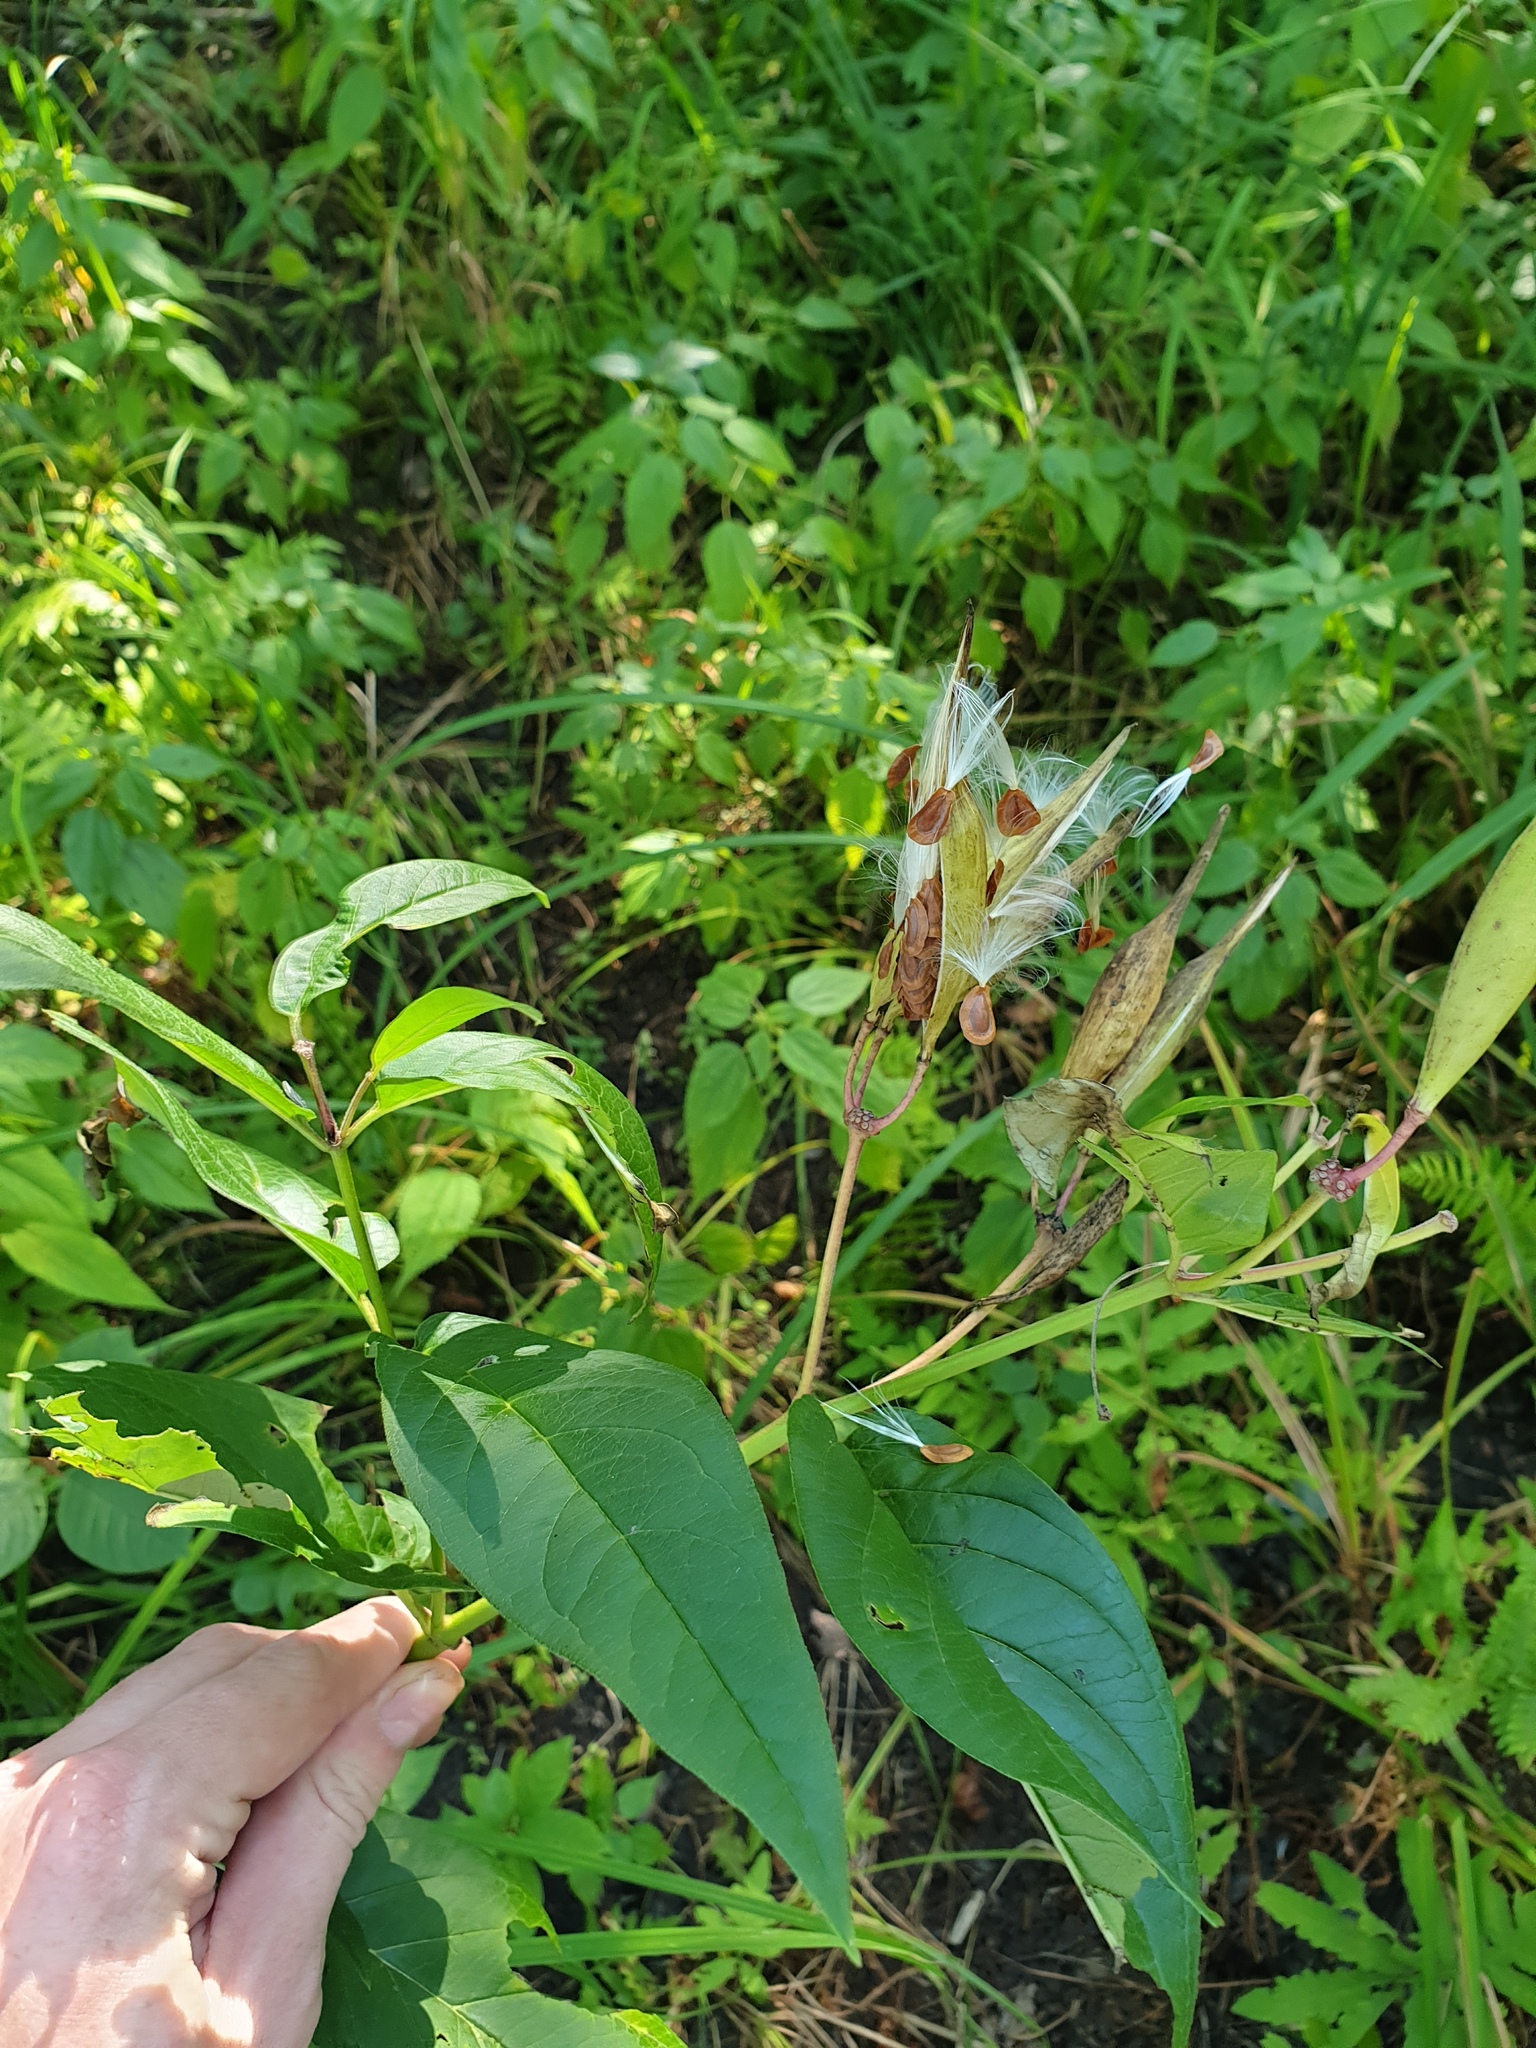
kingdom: Plantae
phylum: Tracheophyta
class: Magnoliopsida
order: Gentianales
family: Apocynaceae
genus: Asclepias
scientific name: Asclepias incarnata
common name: Swamp milkweed
